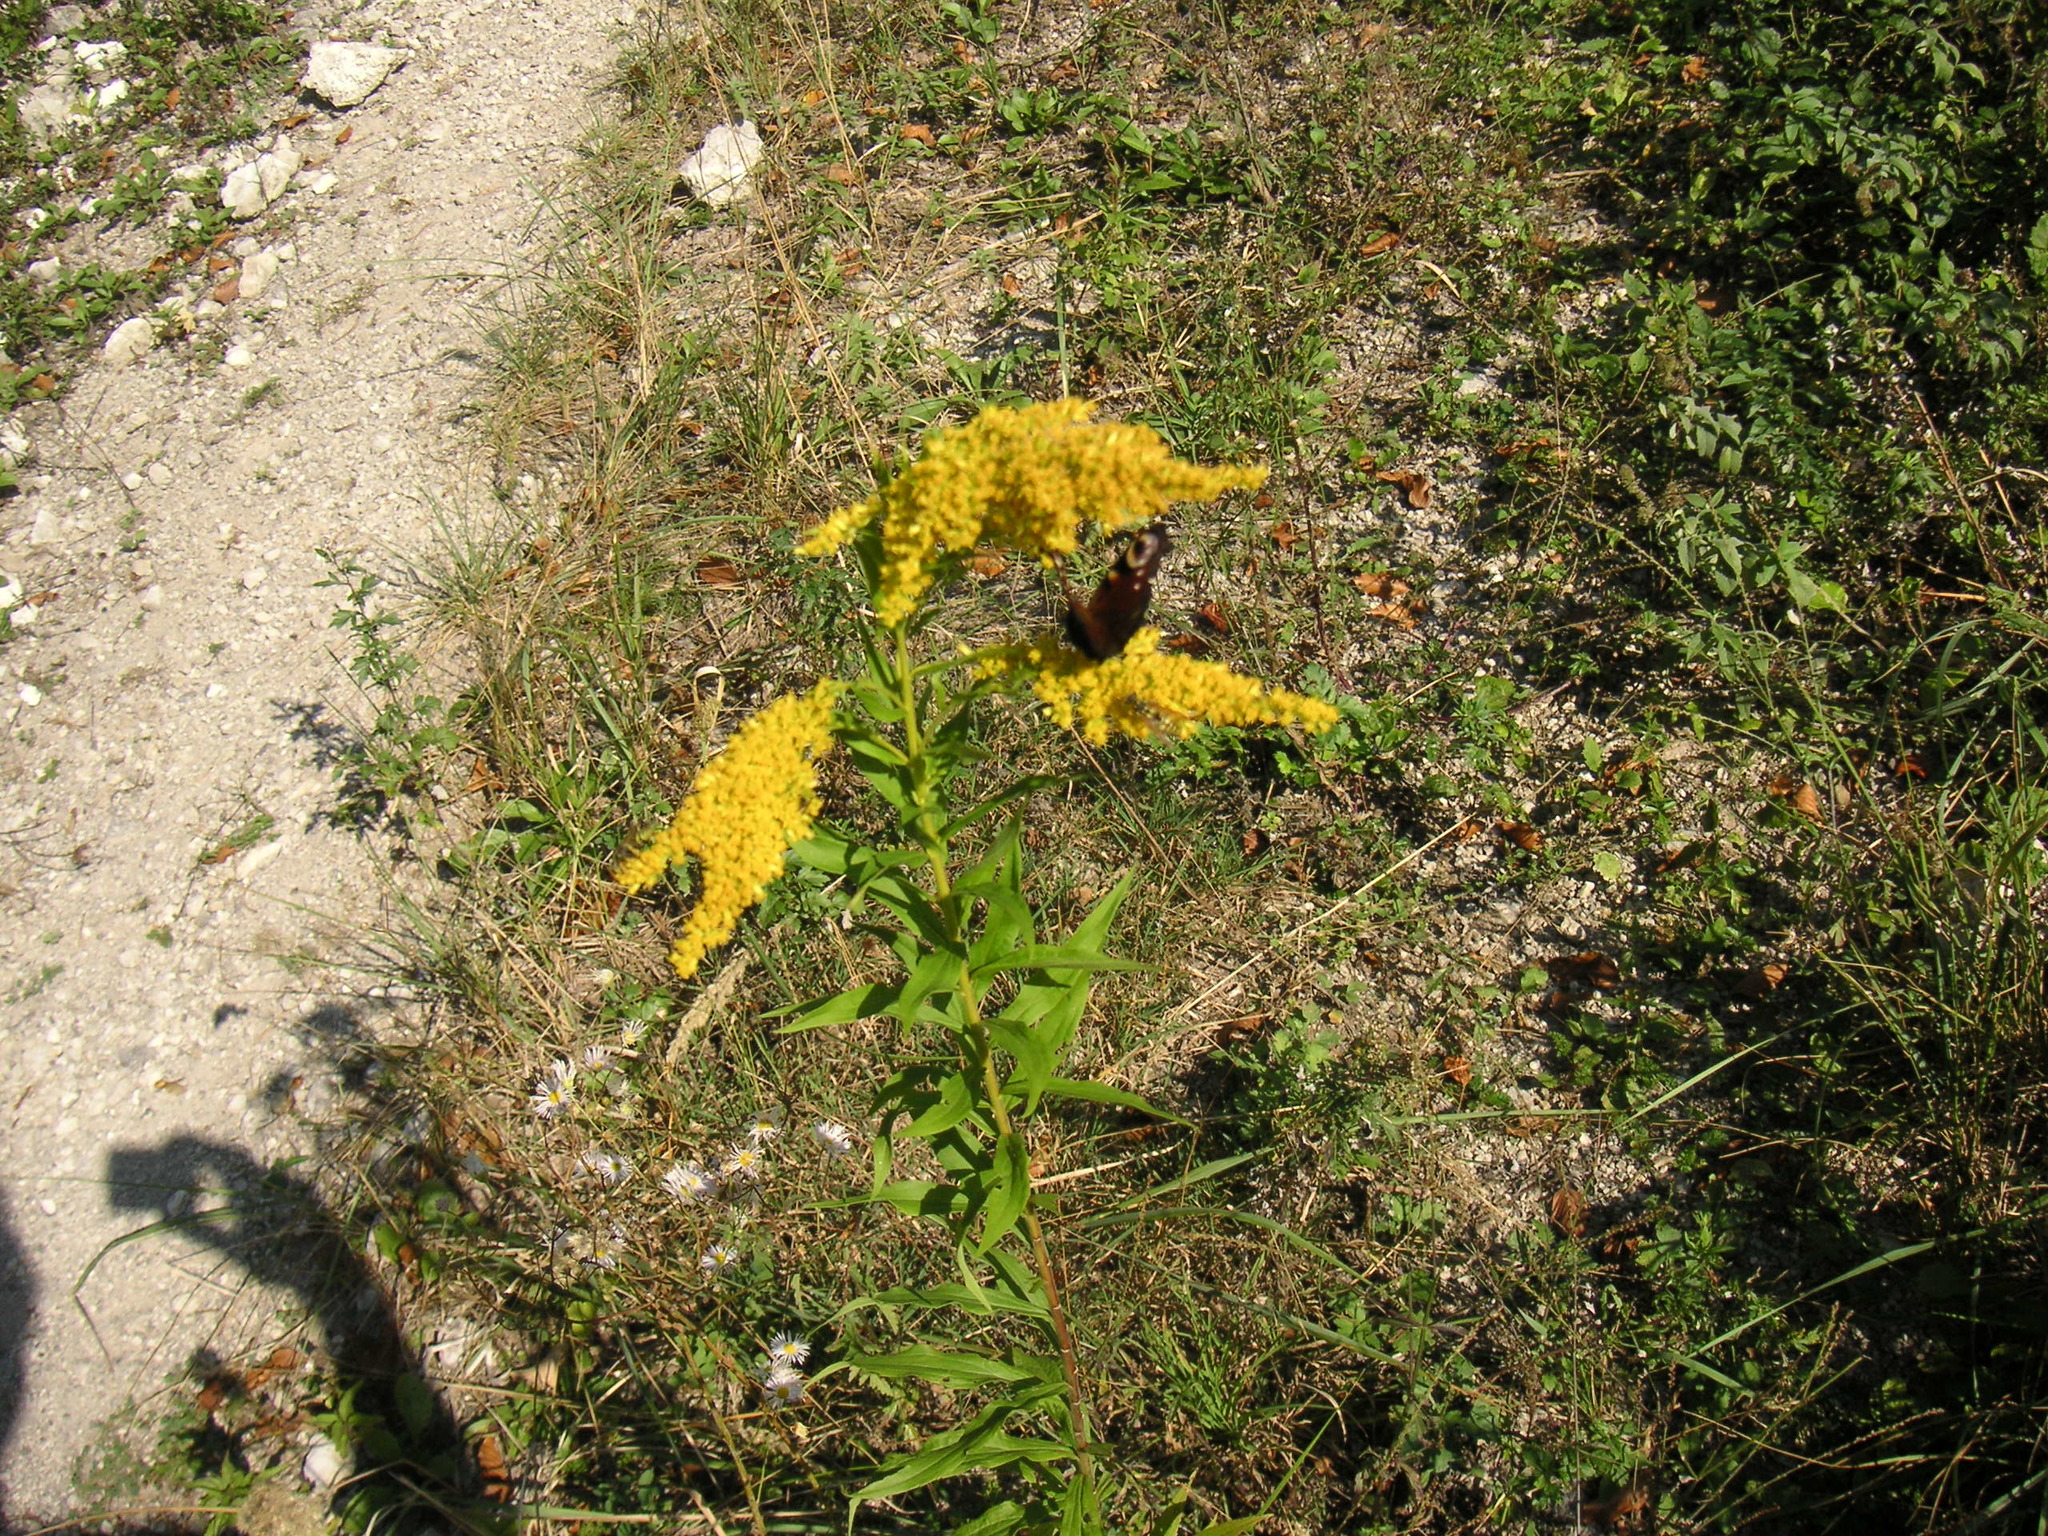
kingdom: Plantae
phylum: Tracheophyta
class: Magnoliopsida
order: Asterales
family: Asteraceae
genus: Solidago
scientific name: Solidago canadensis
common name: Canada goldenrod
